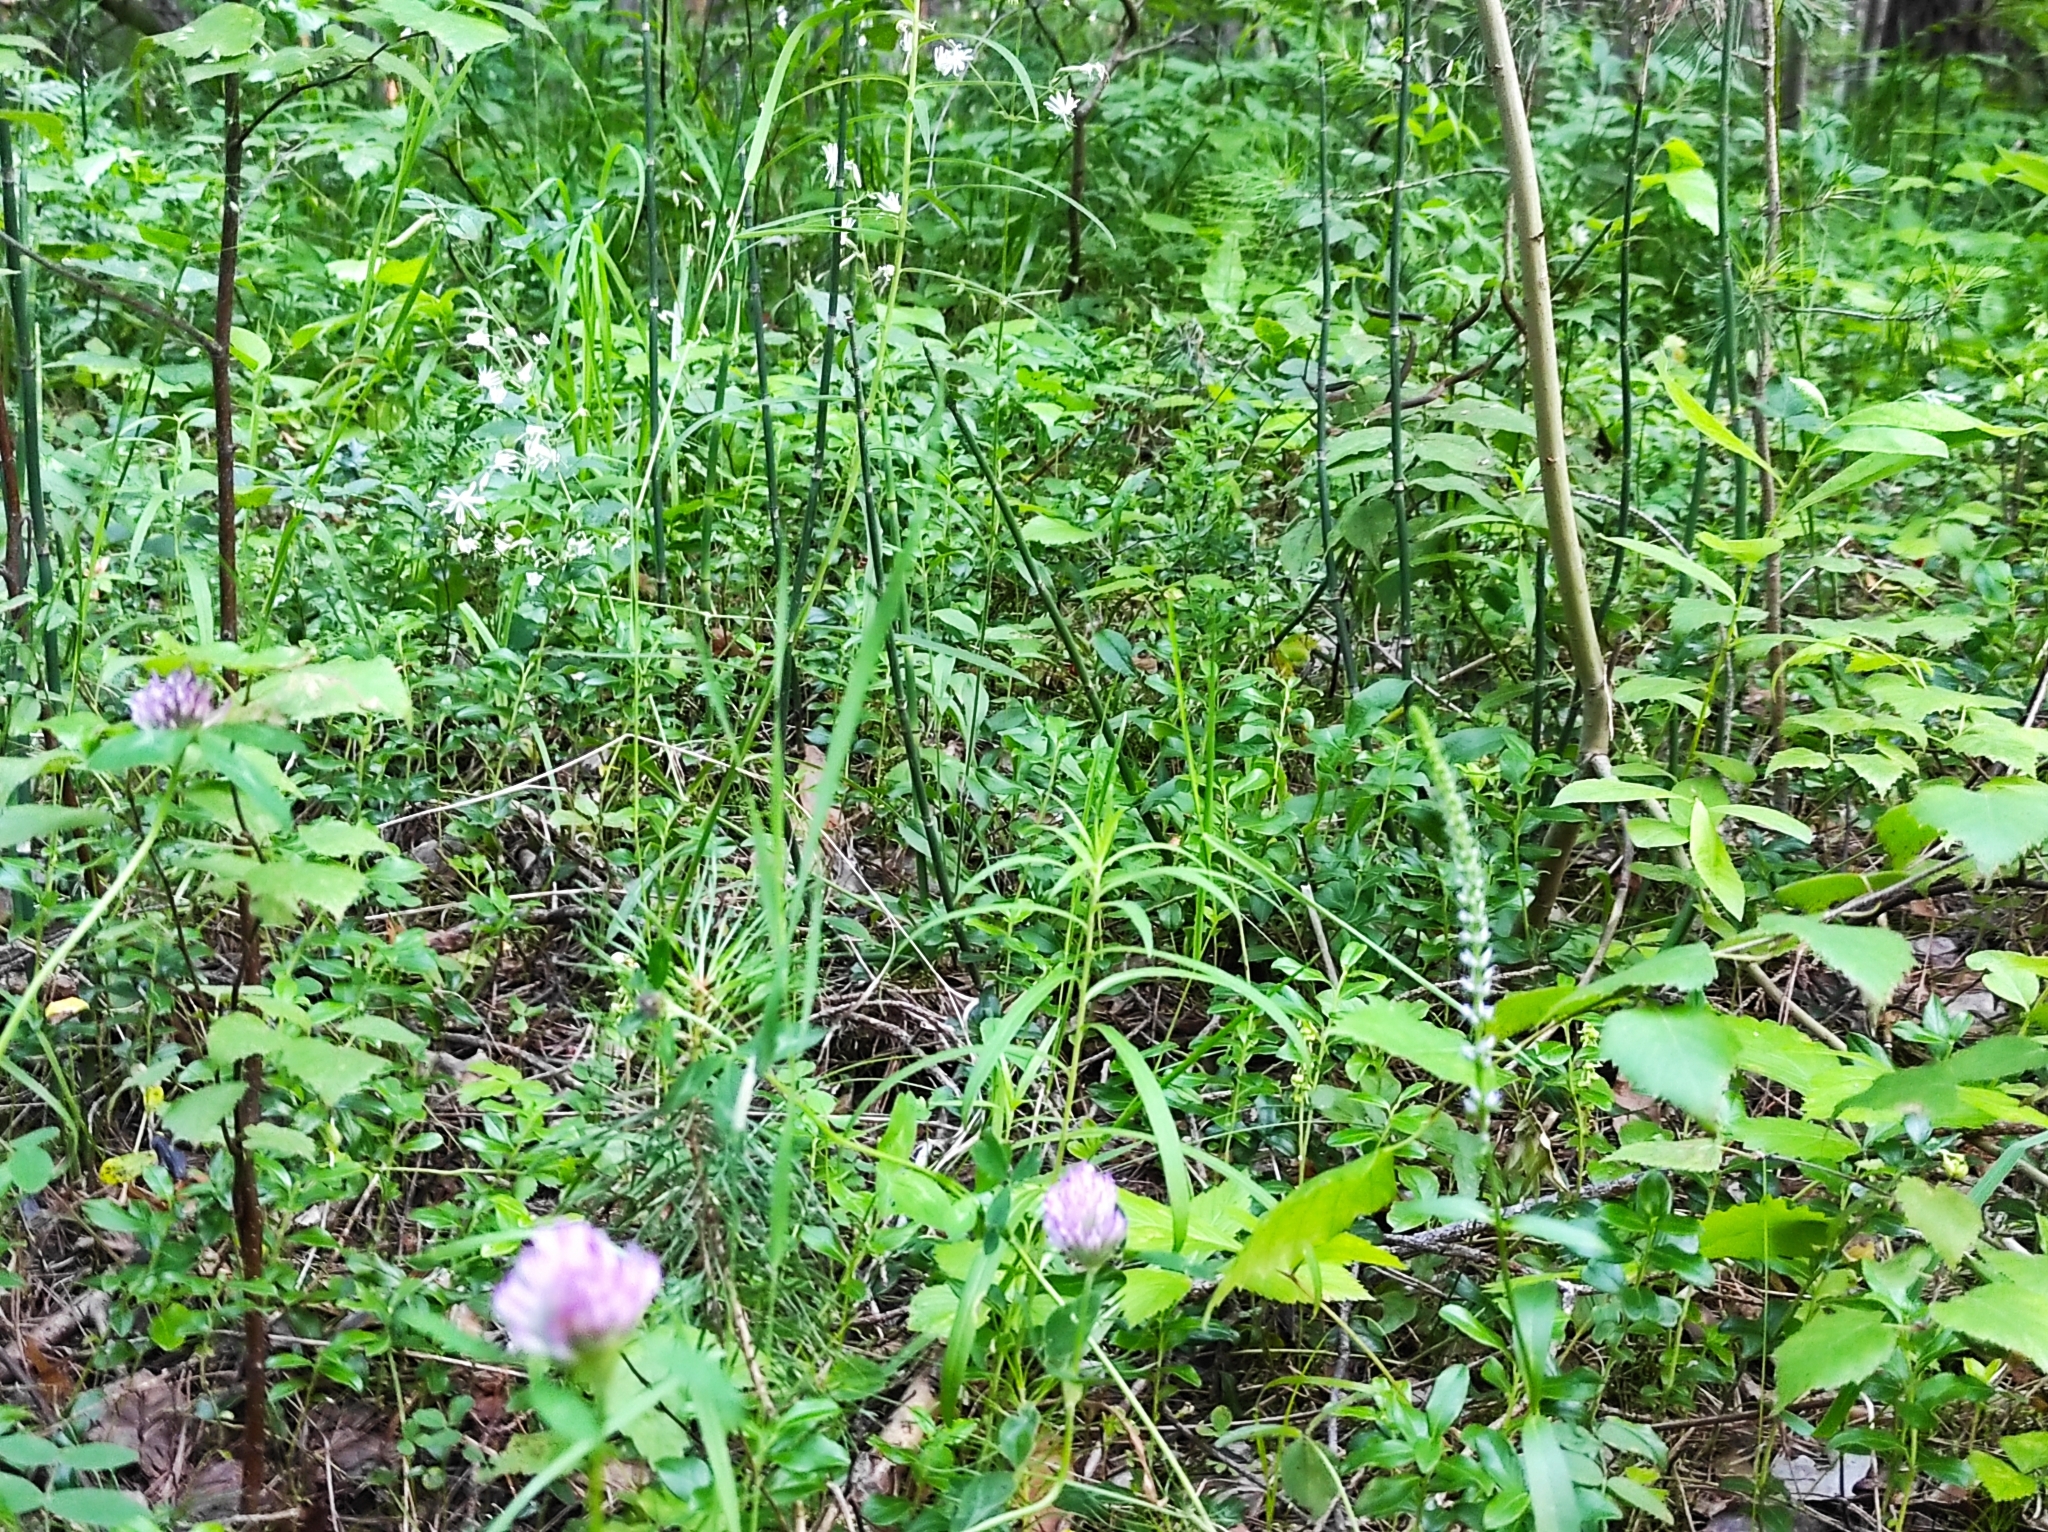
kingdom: Plantae
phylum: Tracheophyta
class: Magnoliopsida
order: Ericales
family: Ericaceae
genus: Vaccinium
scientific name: Vaccinium myrtillus
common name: Bilberry
